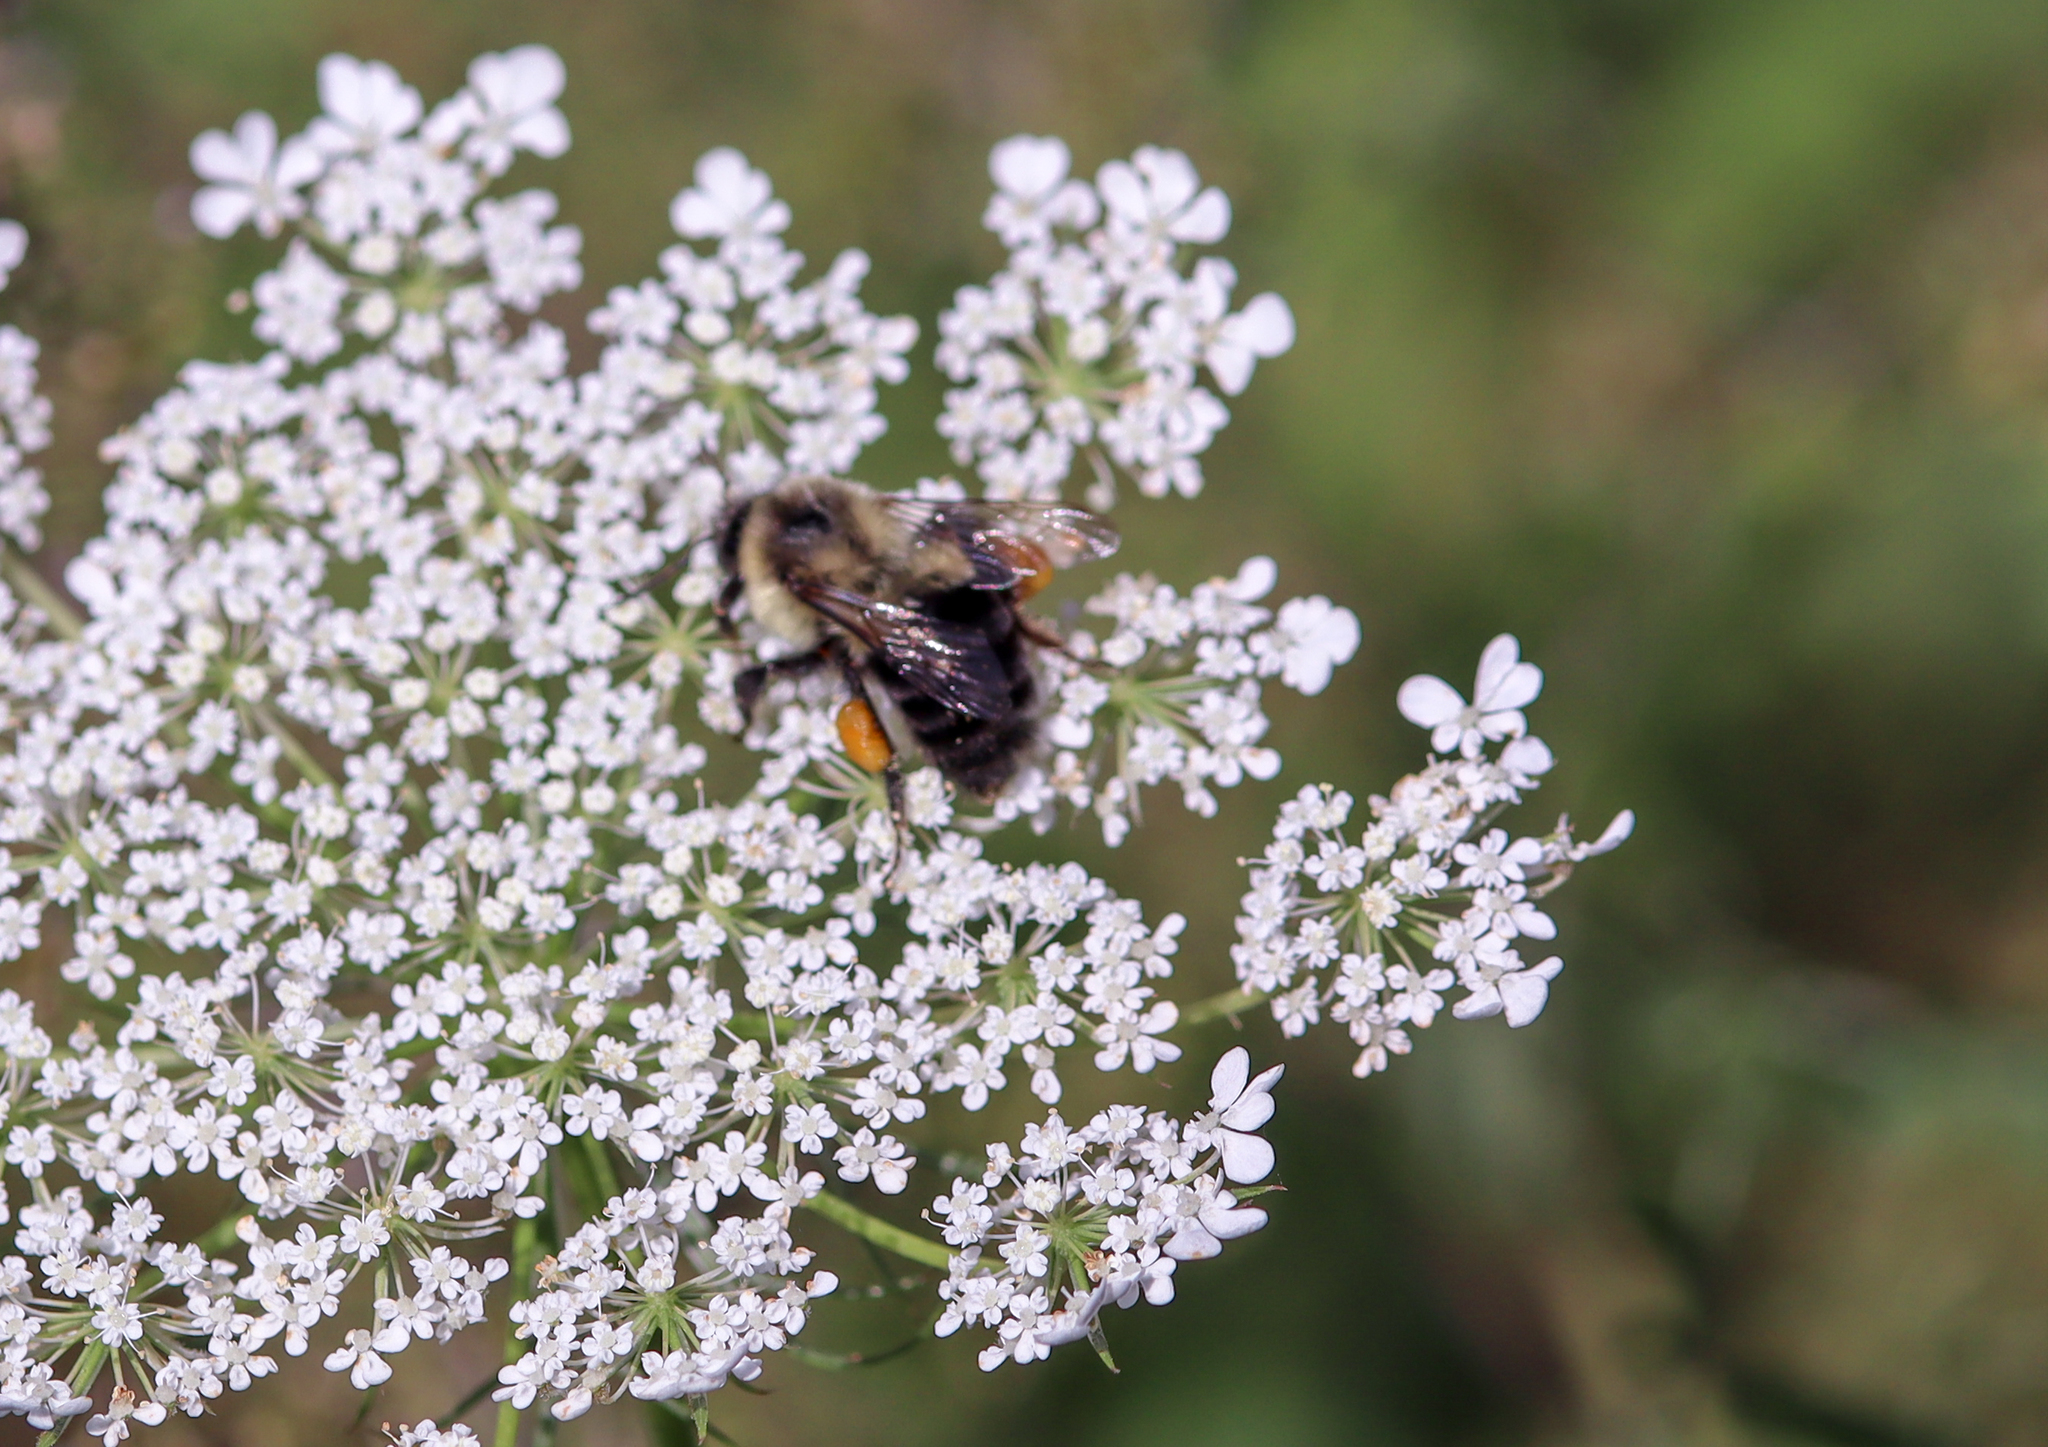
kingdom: Animalia
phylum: Arthropoda
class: Insecta
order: Hymenoptera
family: Apidae
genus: Bombus
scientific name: Bombus impatiens
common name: Common eastern bumble bee
